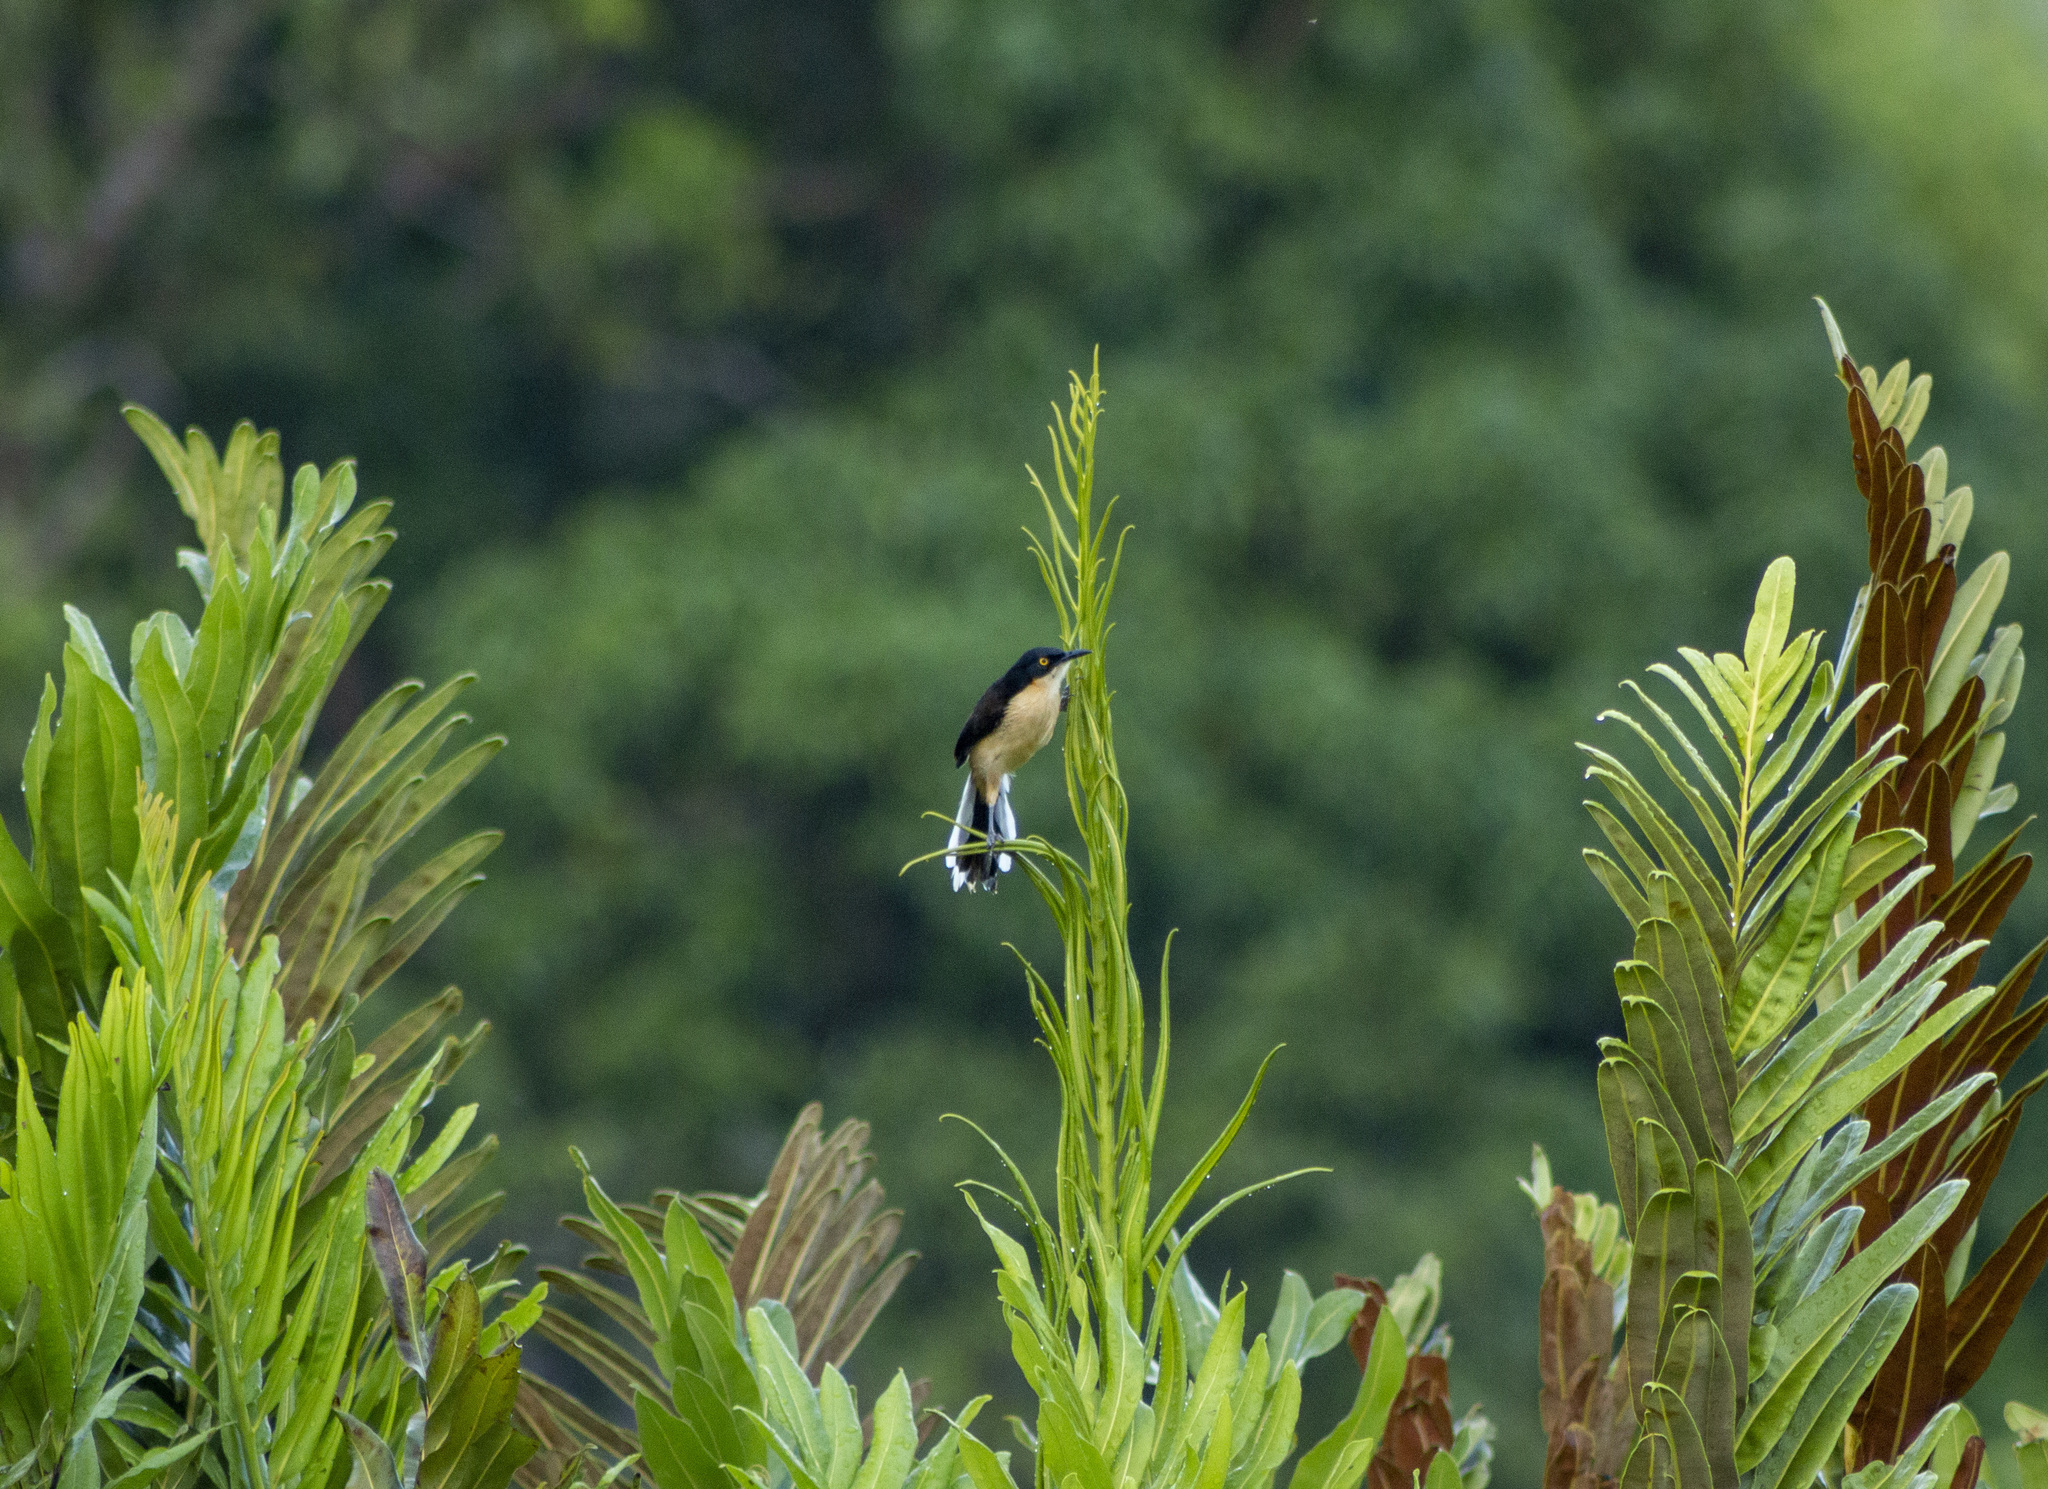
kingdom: Animalia
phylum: Chordata
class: Aves
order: Passeriformes
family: Donacobiidae
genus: Donacobius
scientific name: Donacobius atricapilla
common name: Black-capped donacobius
